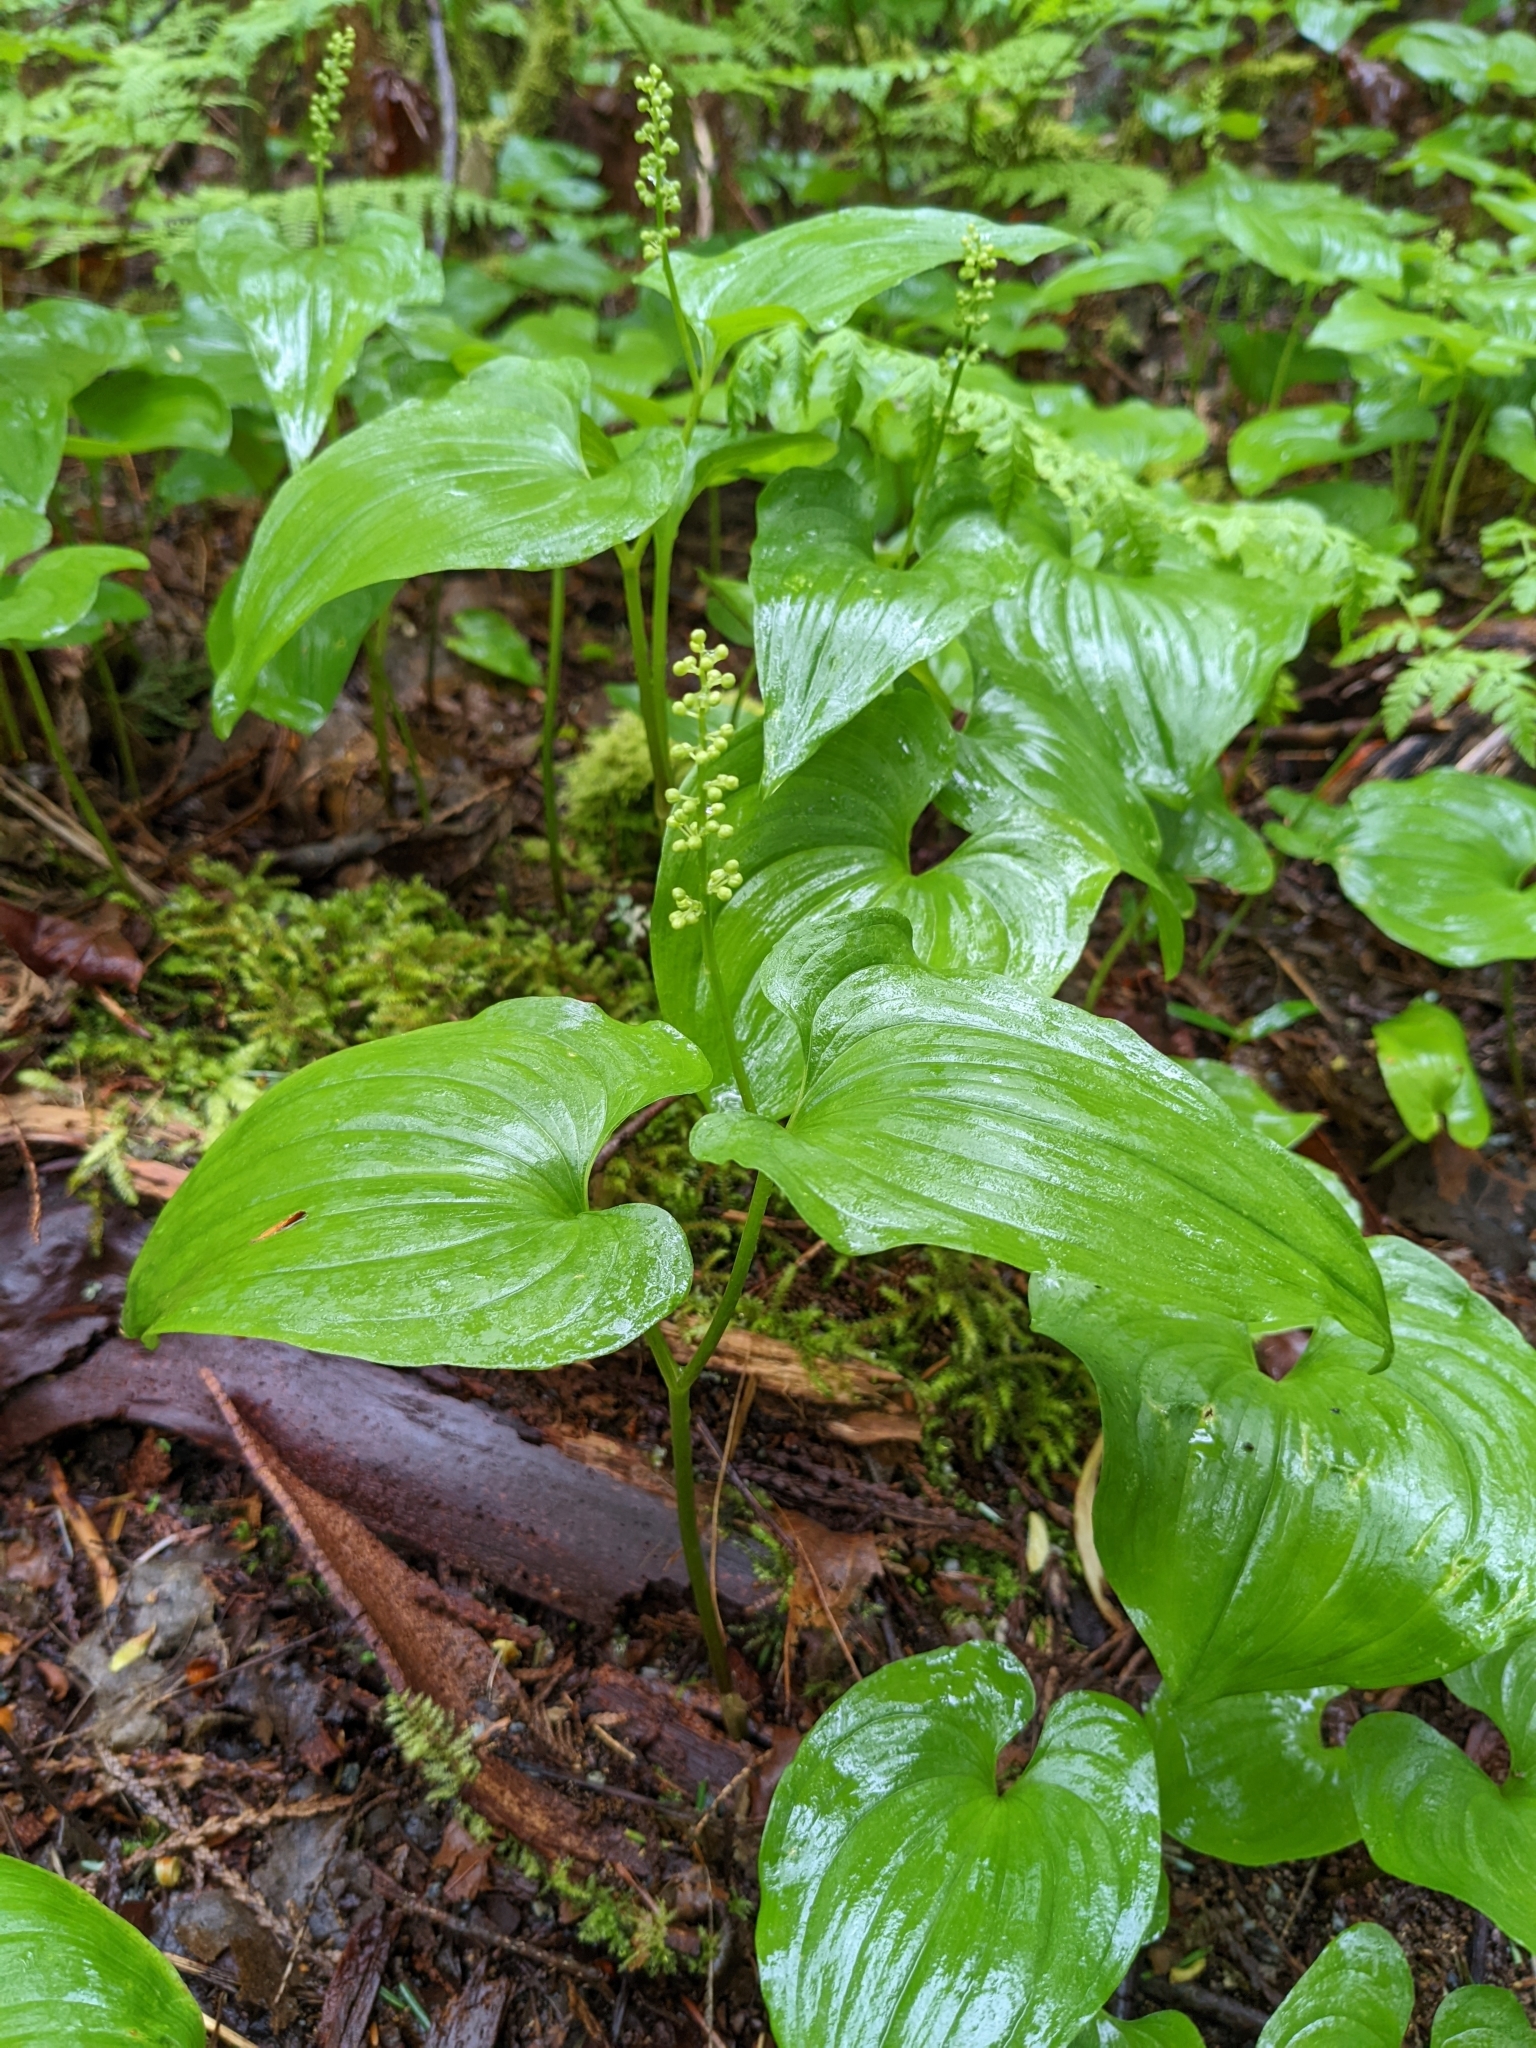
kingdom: Plantae
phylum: Tracheophyta
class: Liliopsida
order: Asparagales
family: Asparagaceae
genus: Maianthemum
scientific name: Maianthemum dilatatum
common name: False lily-of-the-valley
